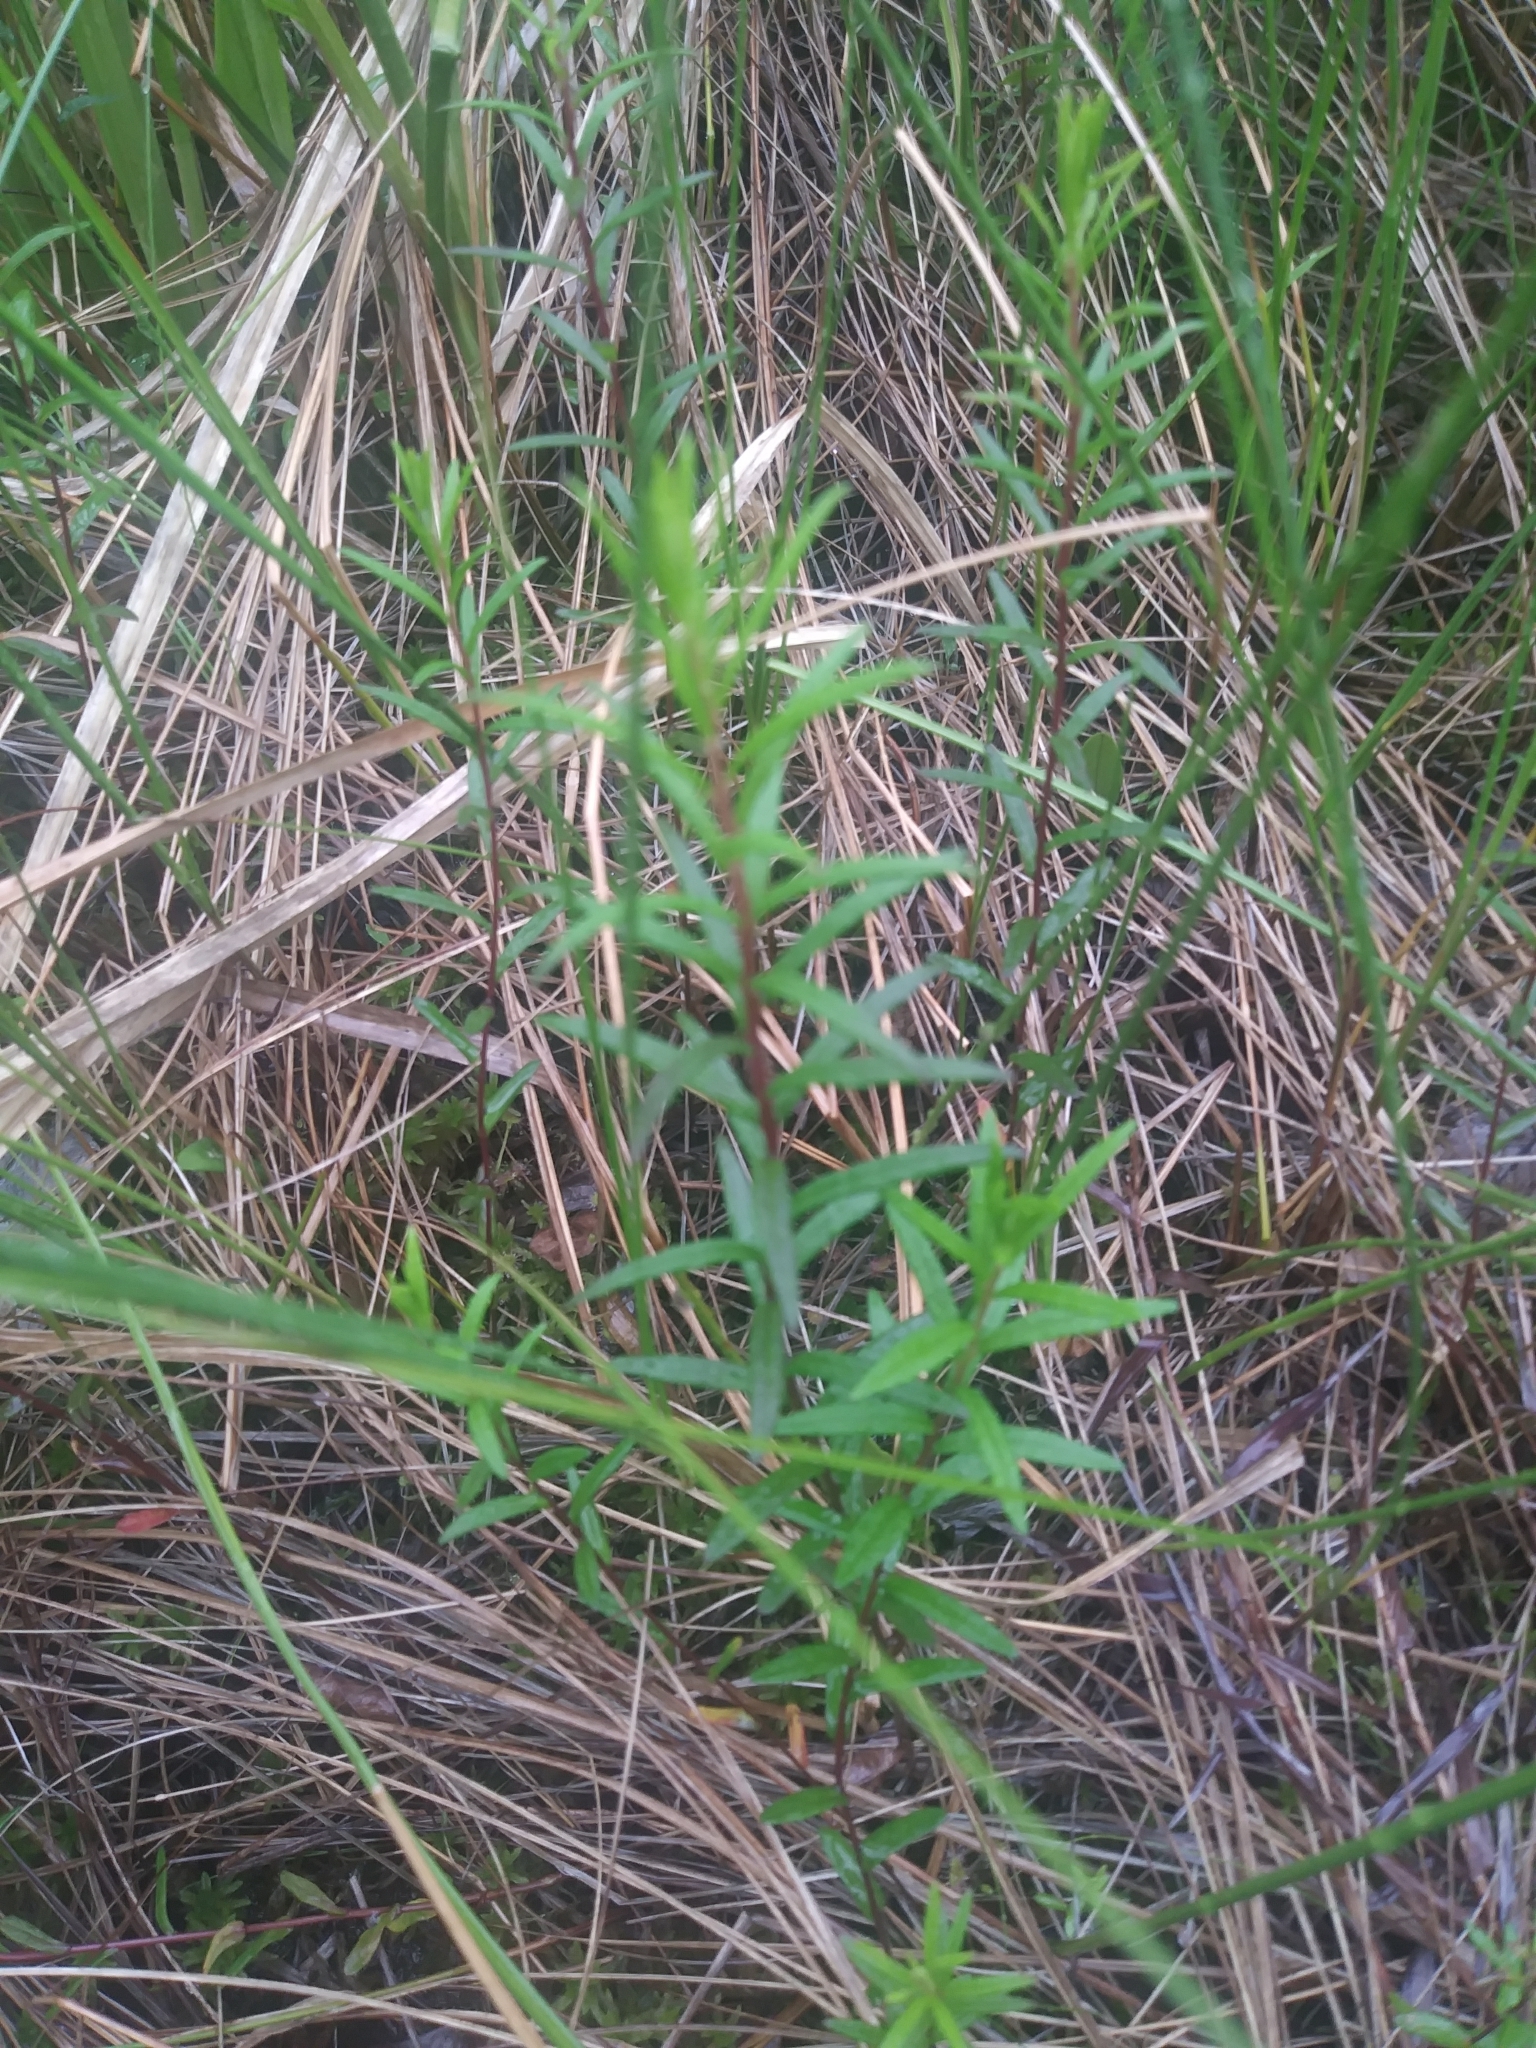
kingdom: Plantae
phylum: Tracheophyta
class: Magnoliopsida
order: Asterales
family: Asteraceae
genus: Oclemena
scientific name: Oclemena nemoralis
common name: Bog aster
